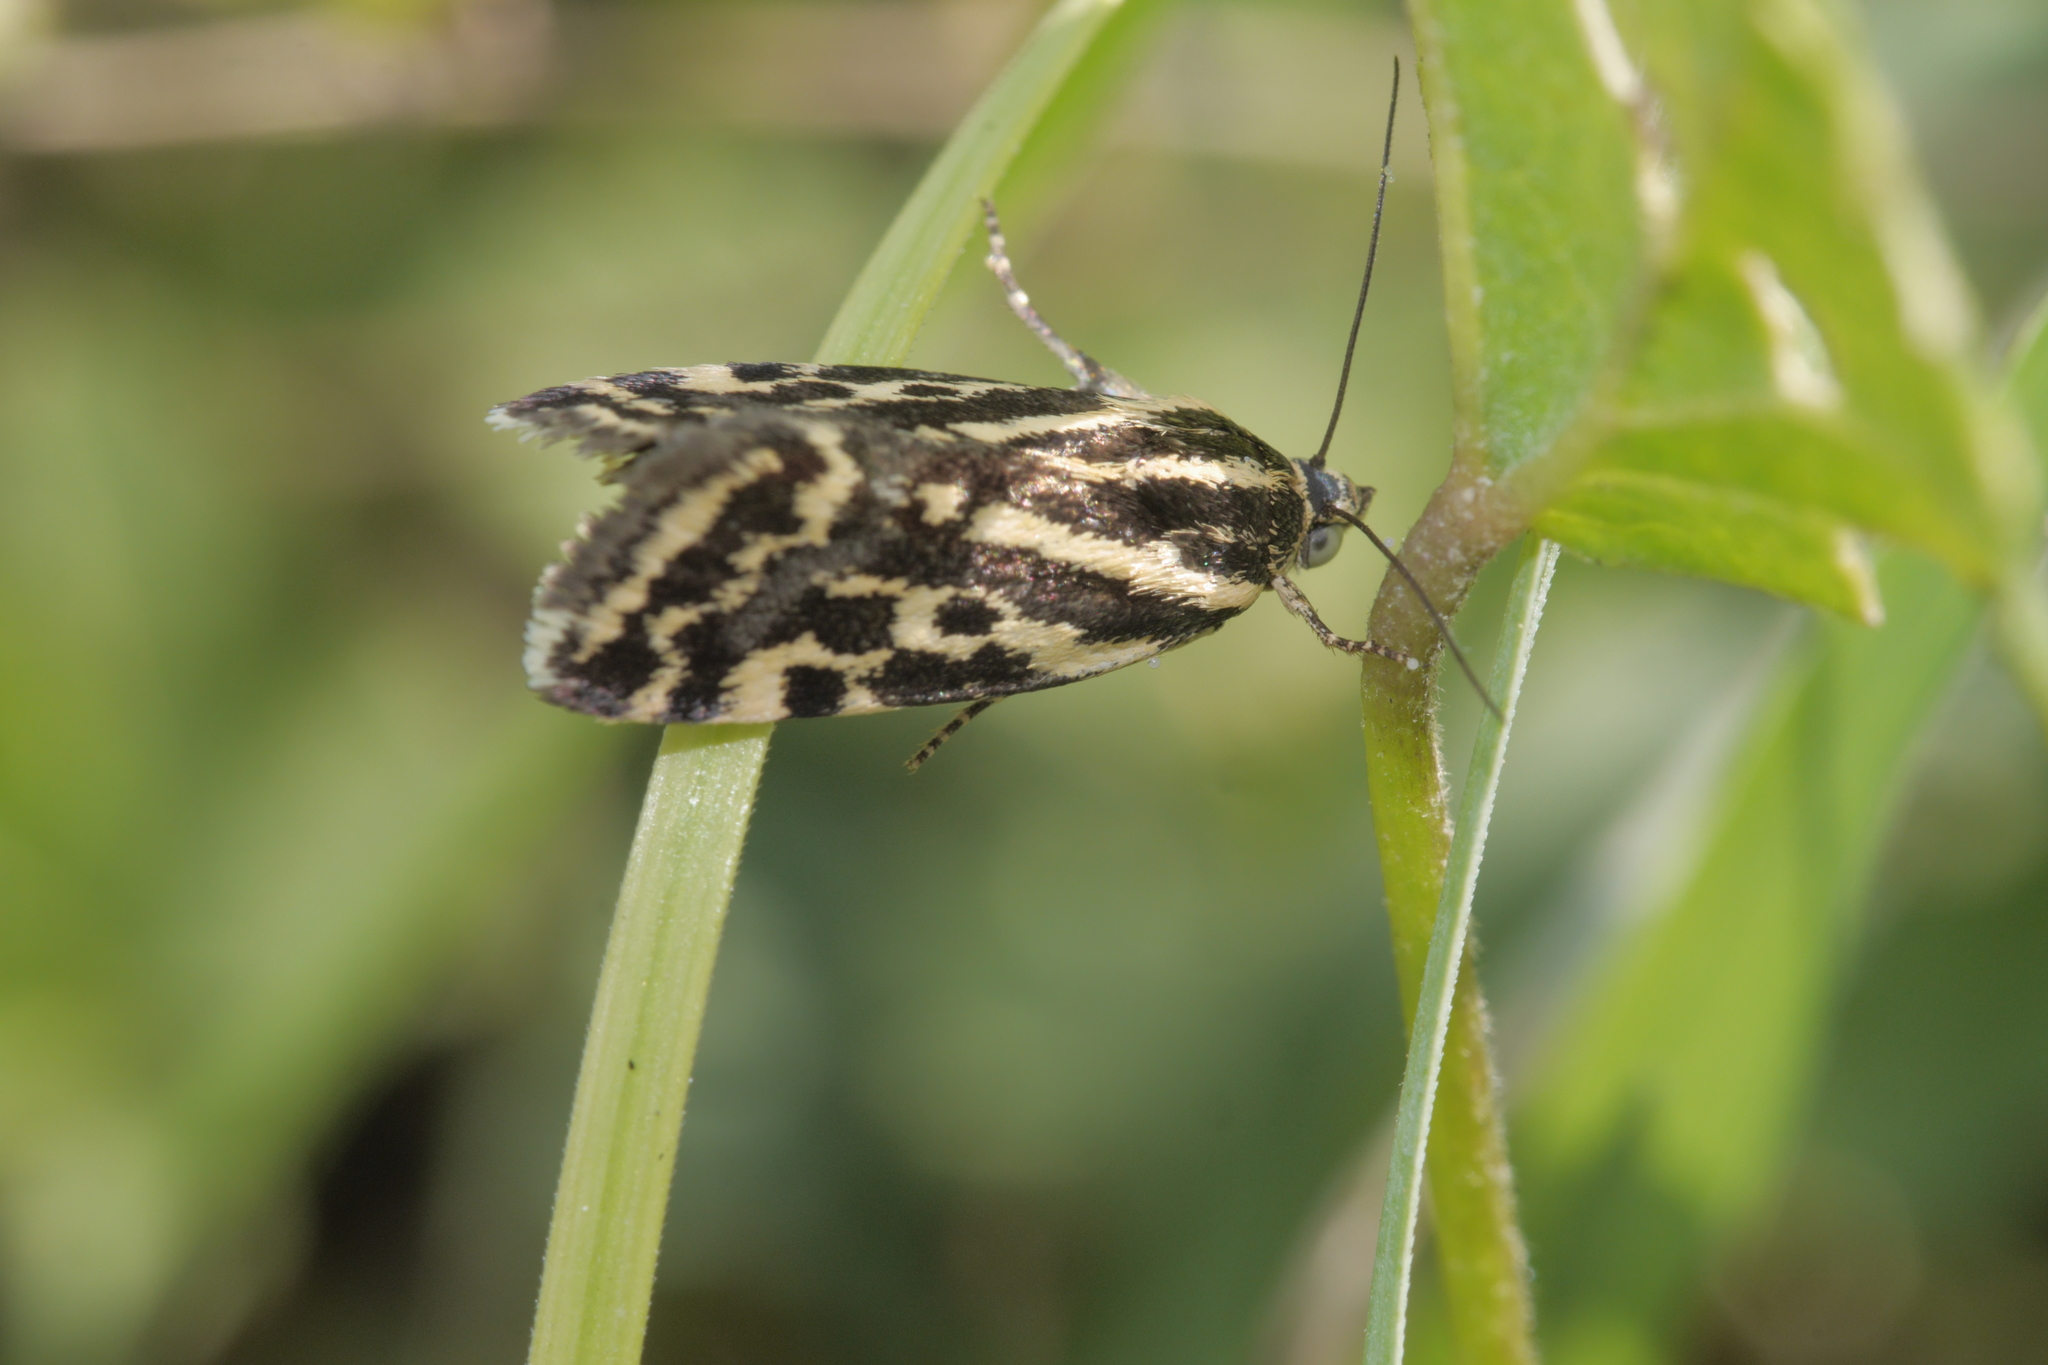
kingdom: Animalia
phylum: Arthropoda
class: Insecta
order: Lepidoptera
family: Noctuidae
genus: Acontia
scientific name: Acontia trabealis
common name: Spotted sulphur
